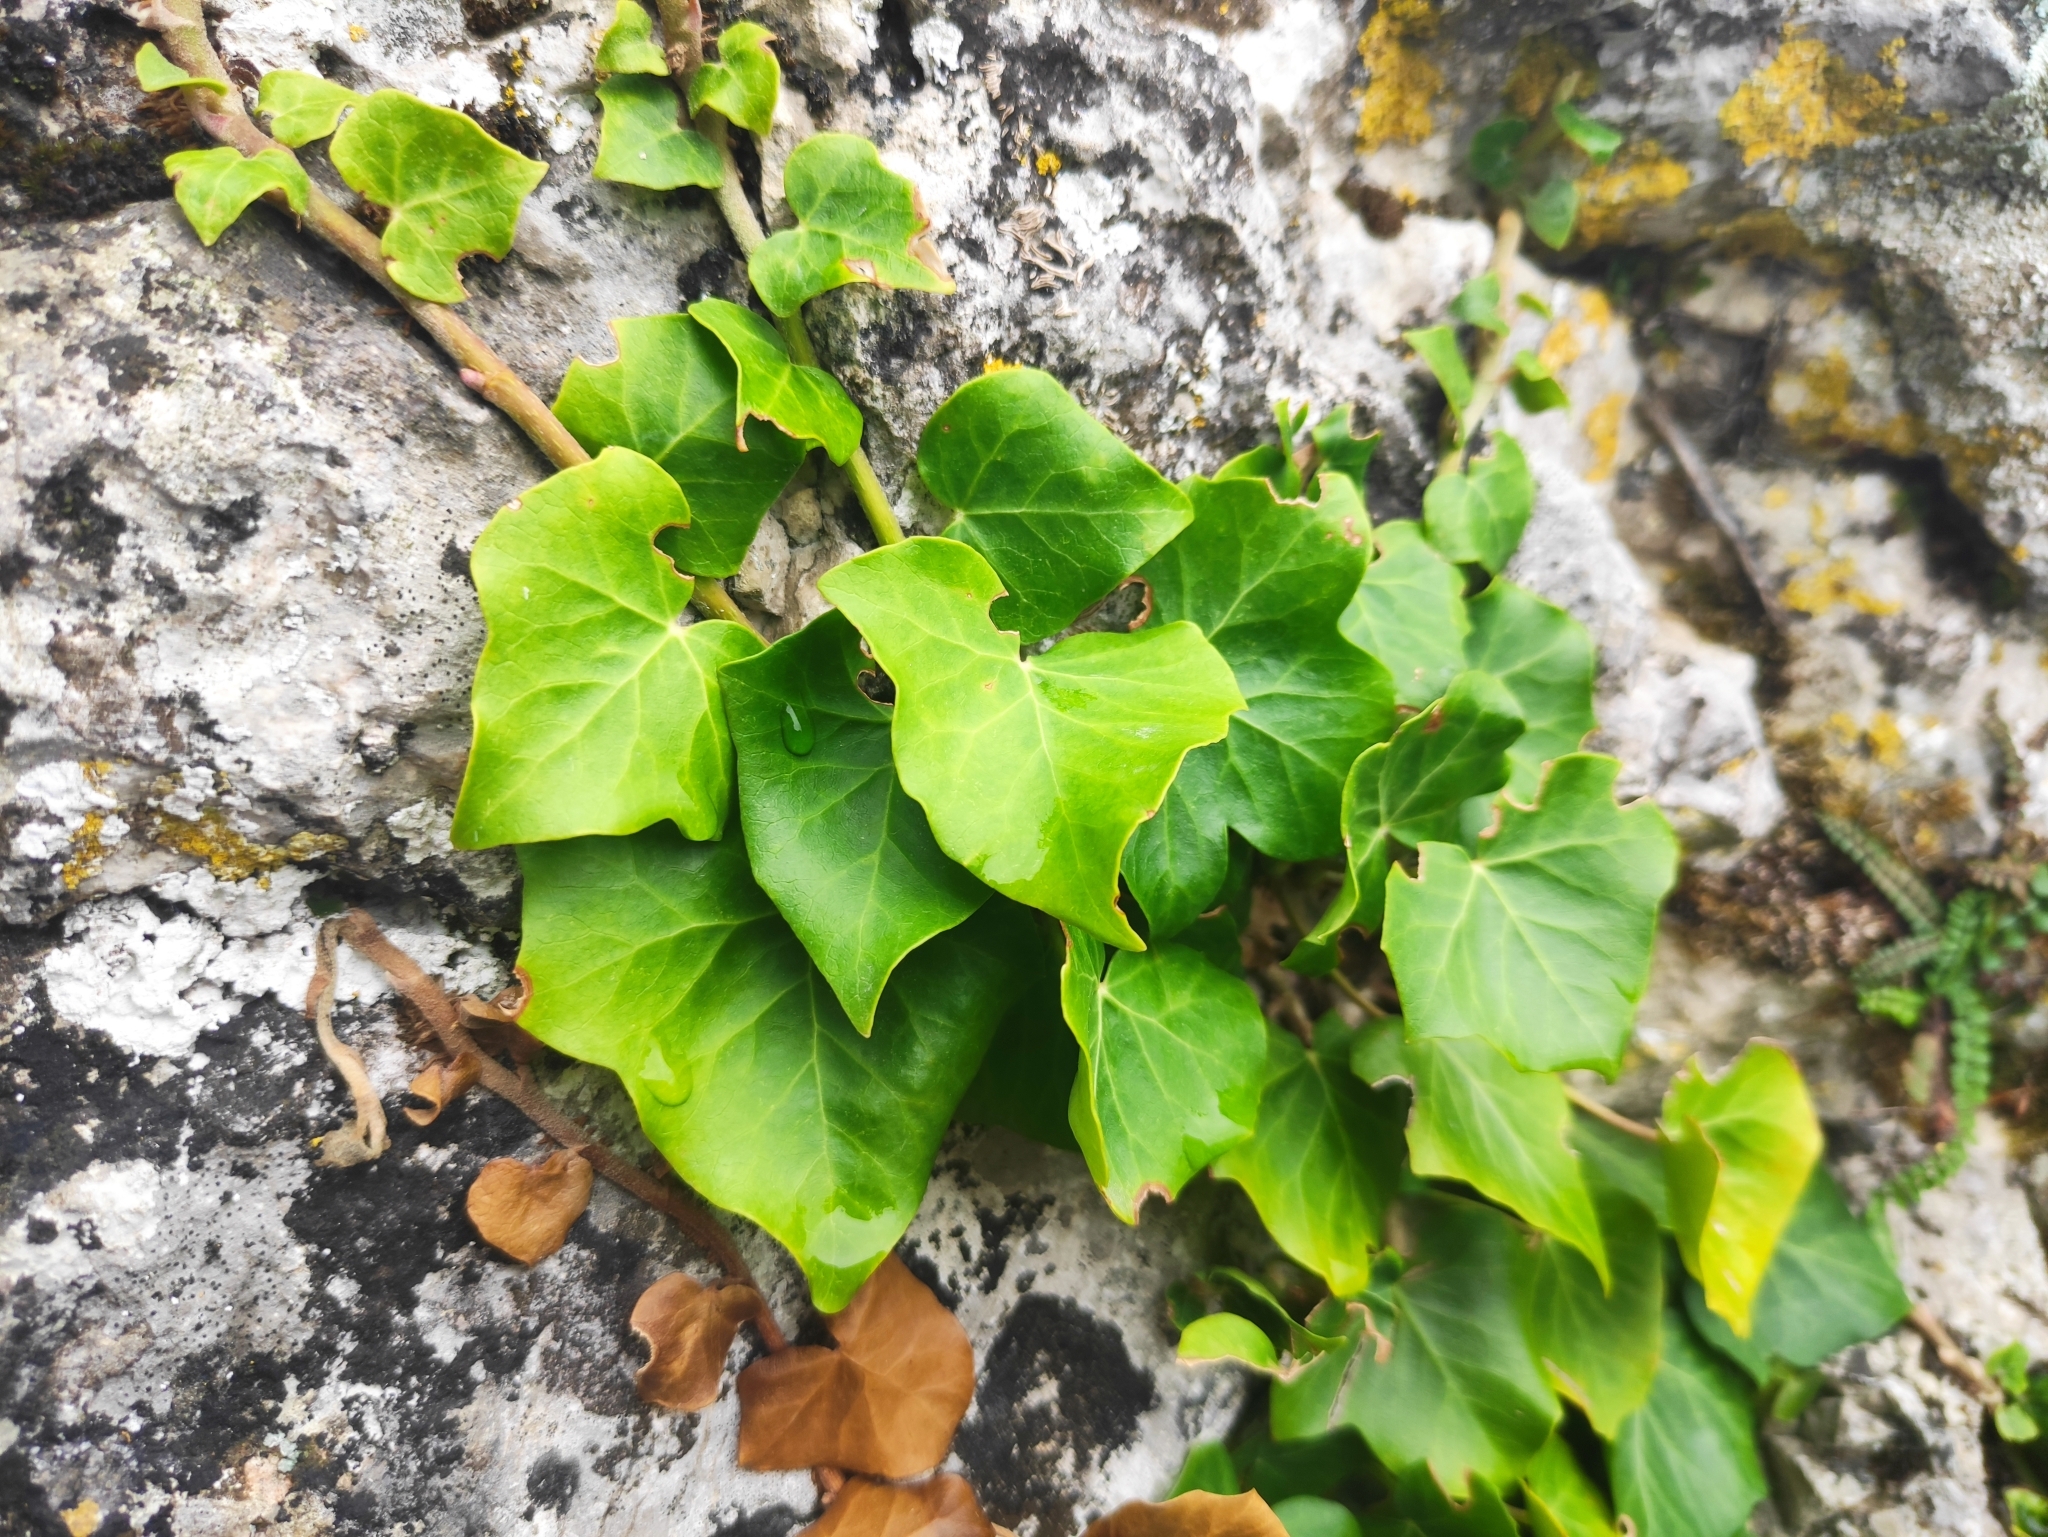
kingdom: Plantae
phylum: Tracheophyta
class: Magnoliopsida
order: Apiales
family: Araliaceae
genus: Hedera
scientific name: Hedera helix
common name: Ivy
